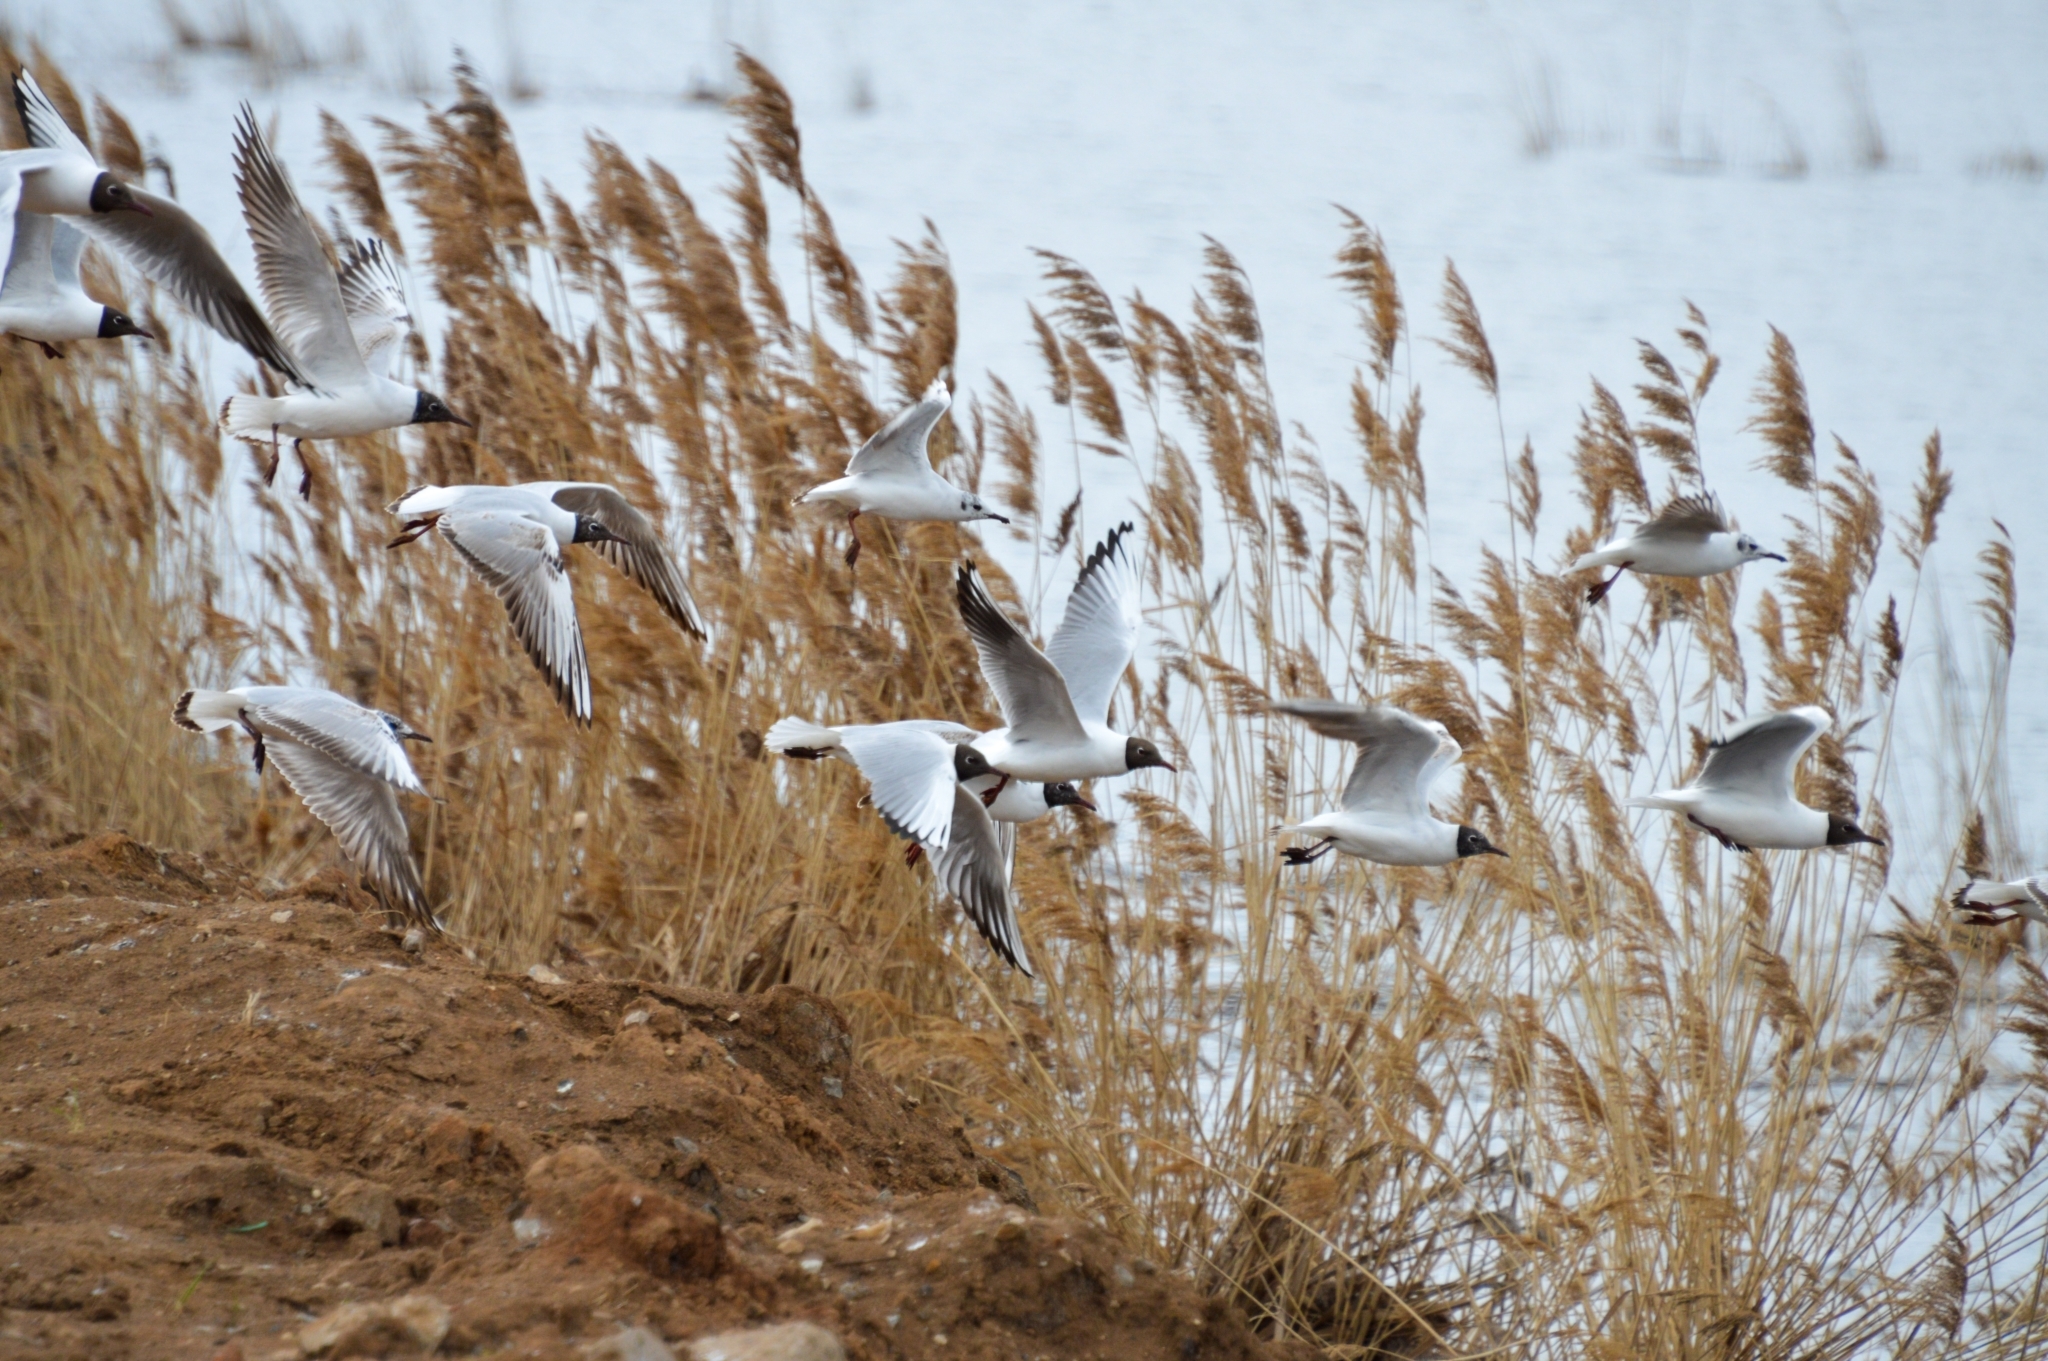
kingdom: Animalia
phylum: Chordata
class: Aves
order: Charadriiformes
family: Laridae
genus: Chroicocephalus
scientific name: Chroicocephalus ridibundus
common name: Black-headed gull
